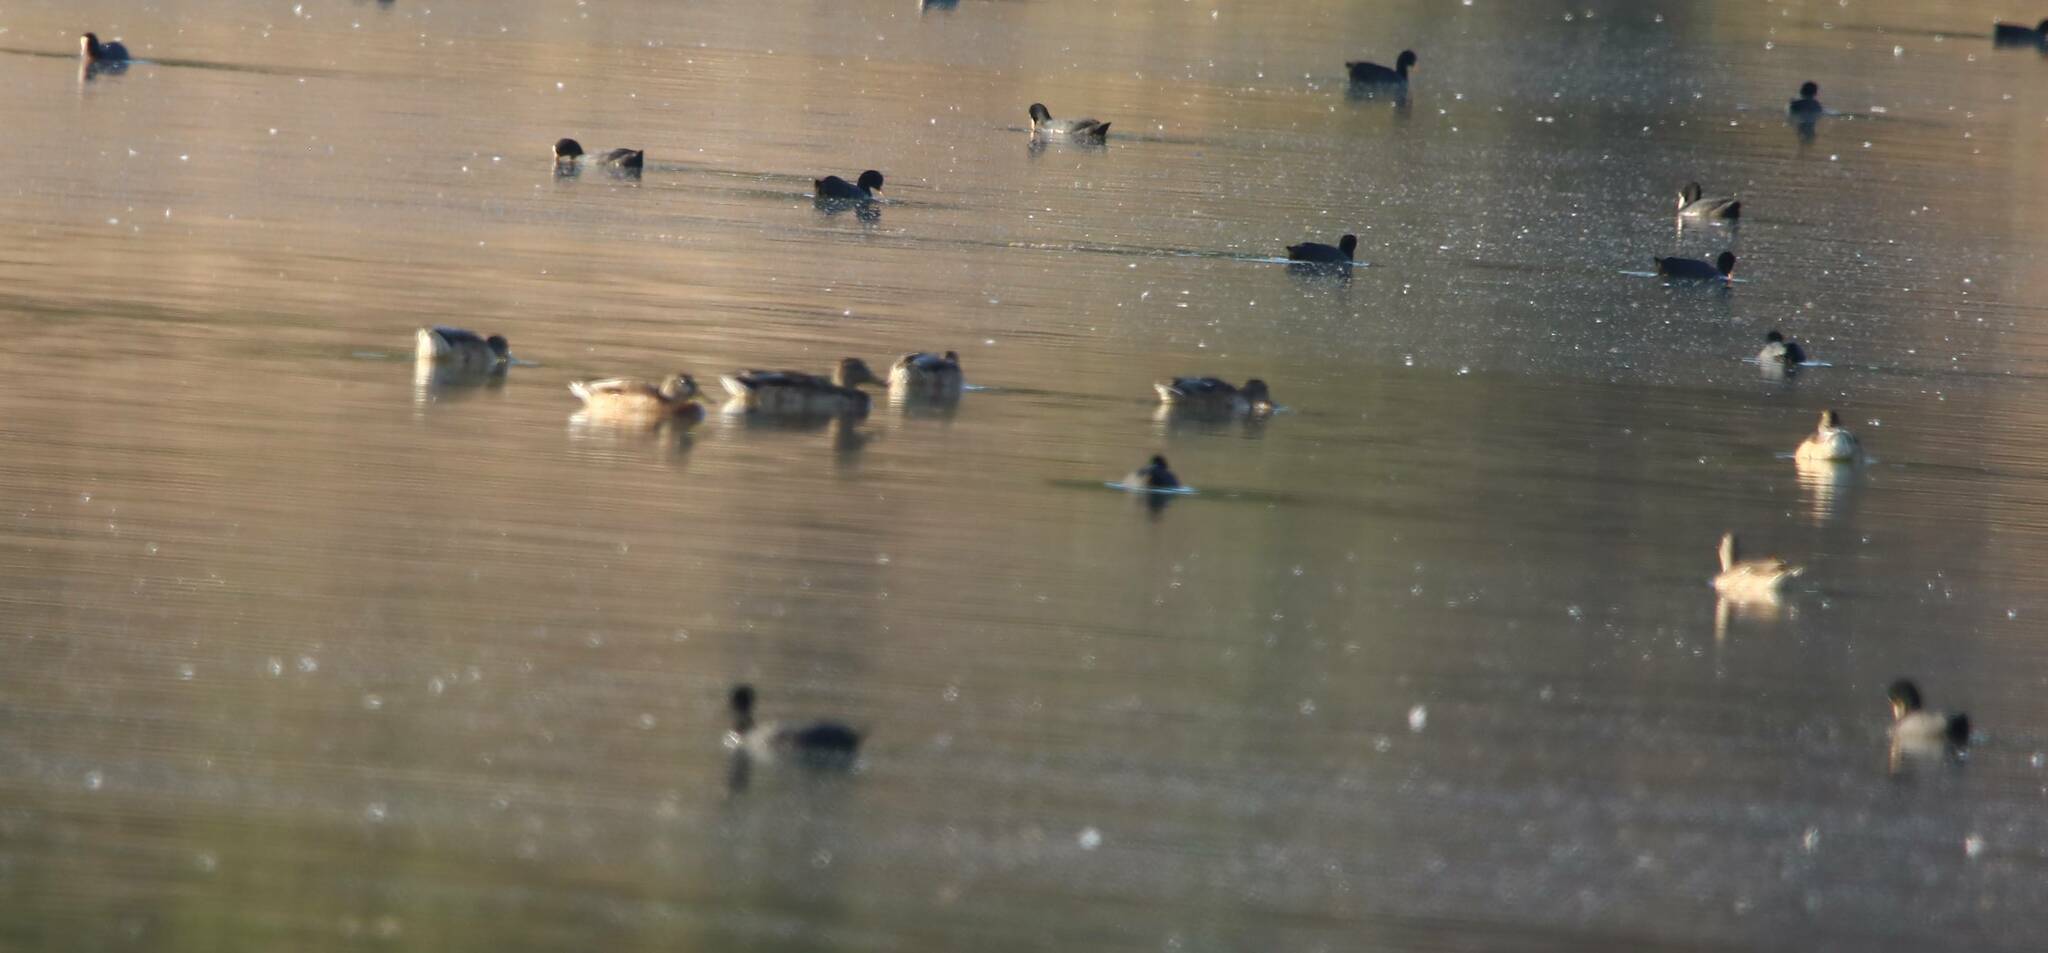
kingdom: Animalia
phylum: Chordata
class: Aves
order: Anseriformes
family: Anatidae
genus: Anas
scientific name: Anas platyrhynchos
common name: Mallard
